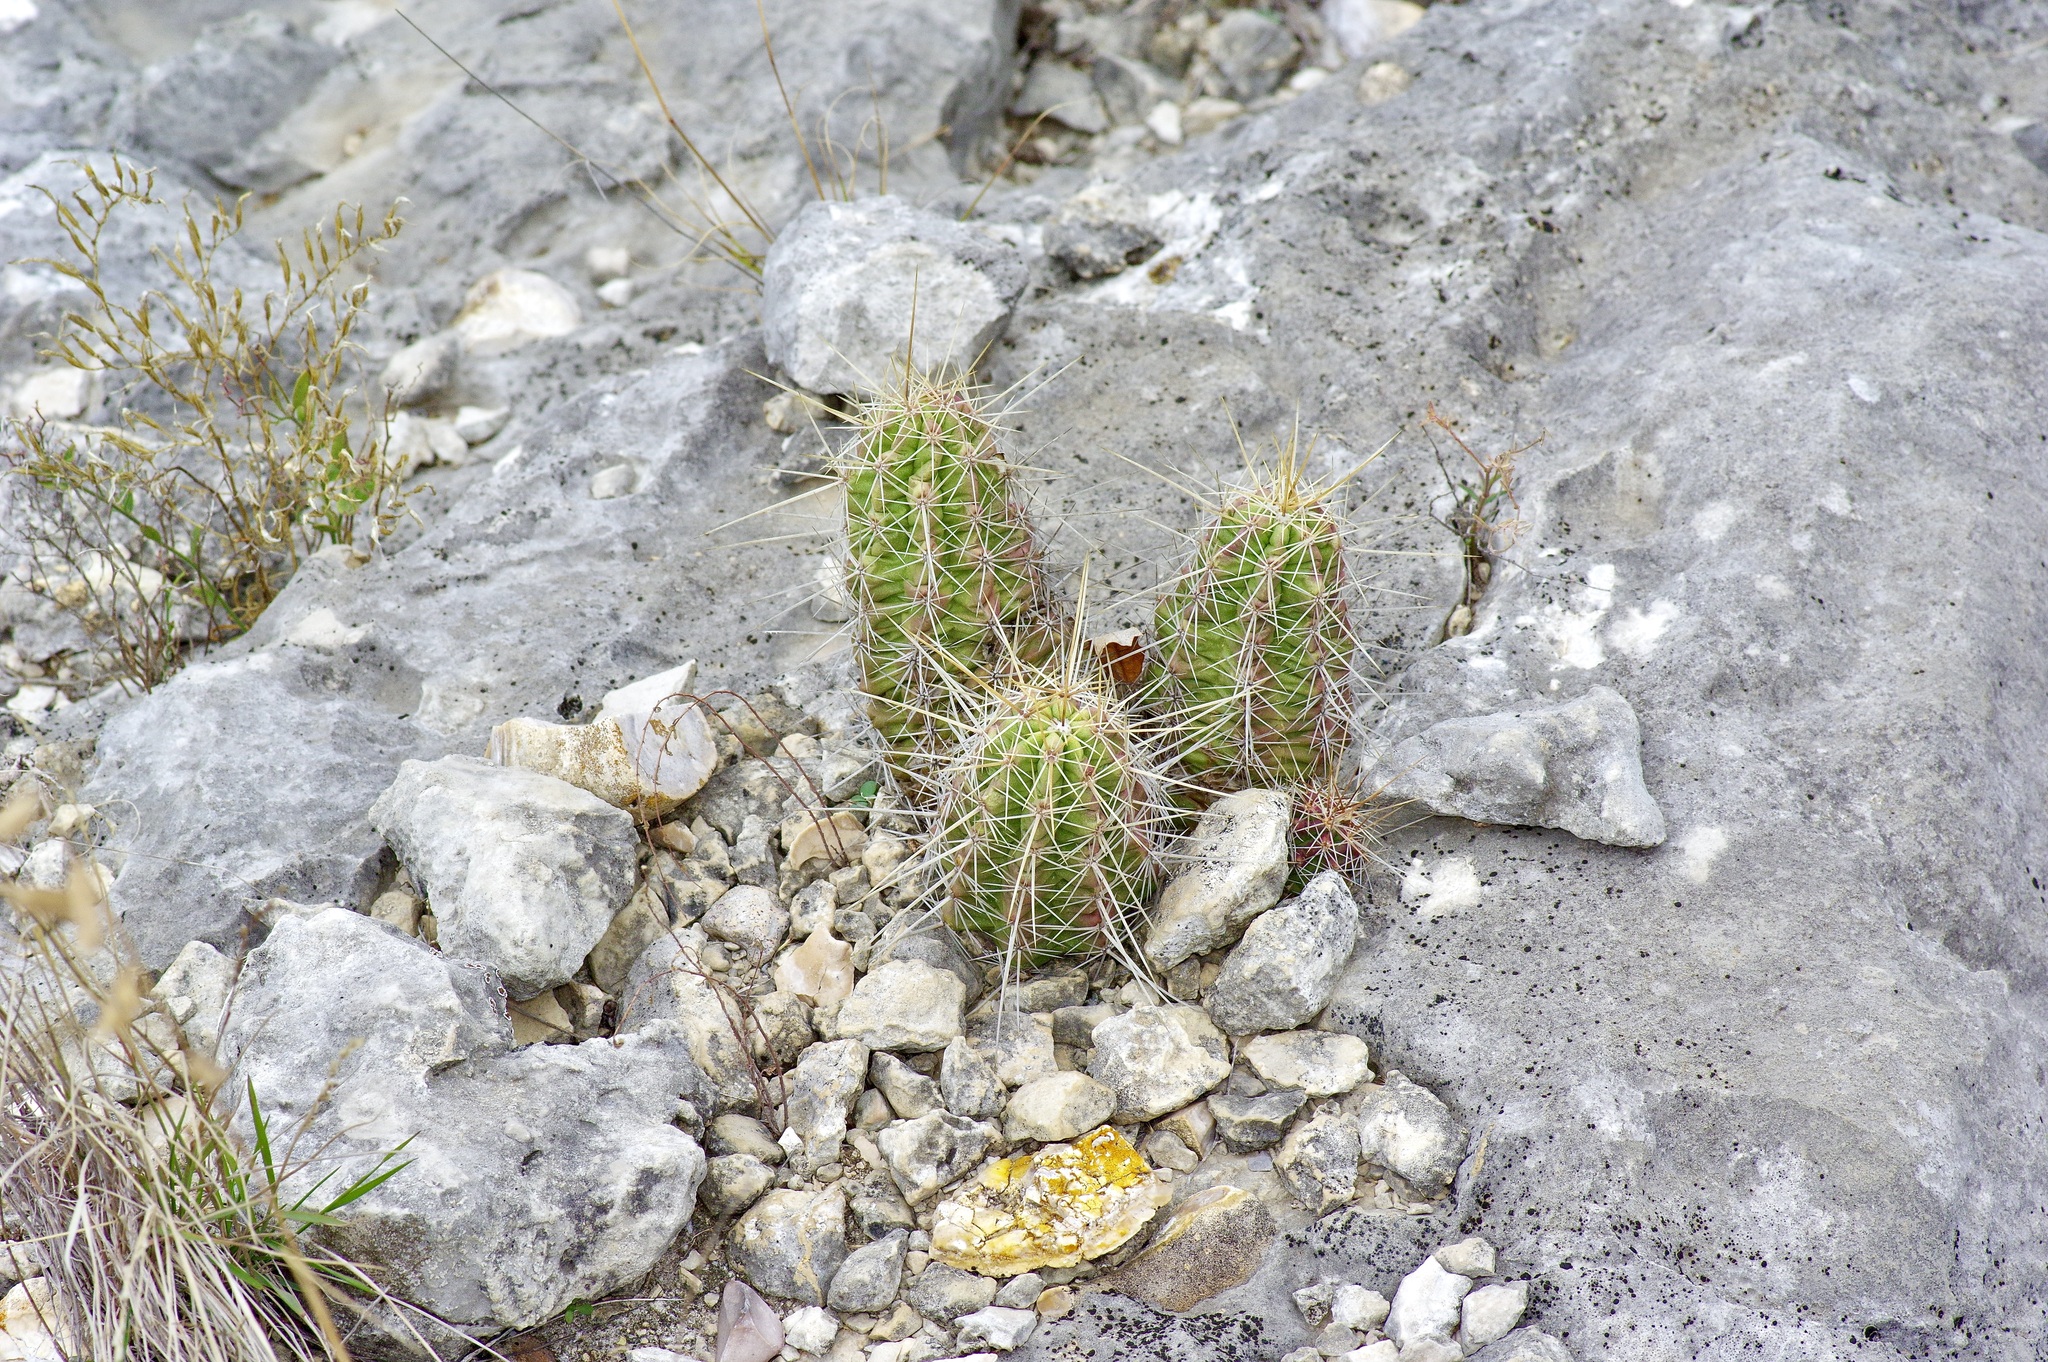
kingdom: Plantae
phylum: Tracheophyta
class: Magnoliopsida
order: Caryophyllales
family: Cactaceae
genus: Echinocereus
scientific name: Echinocereus enneacanthus
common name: Pitaya
